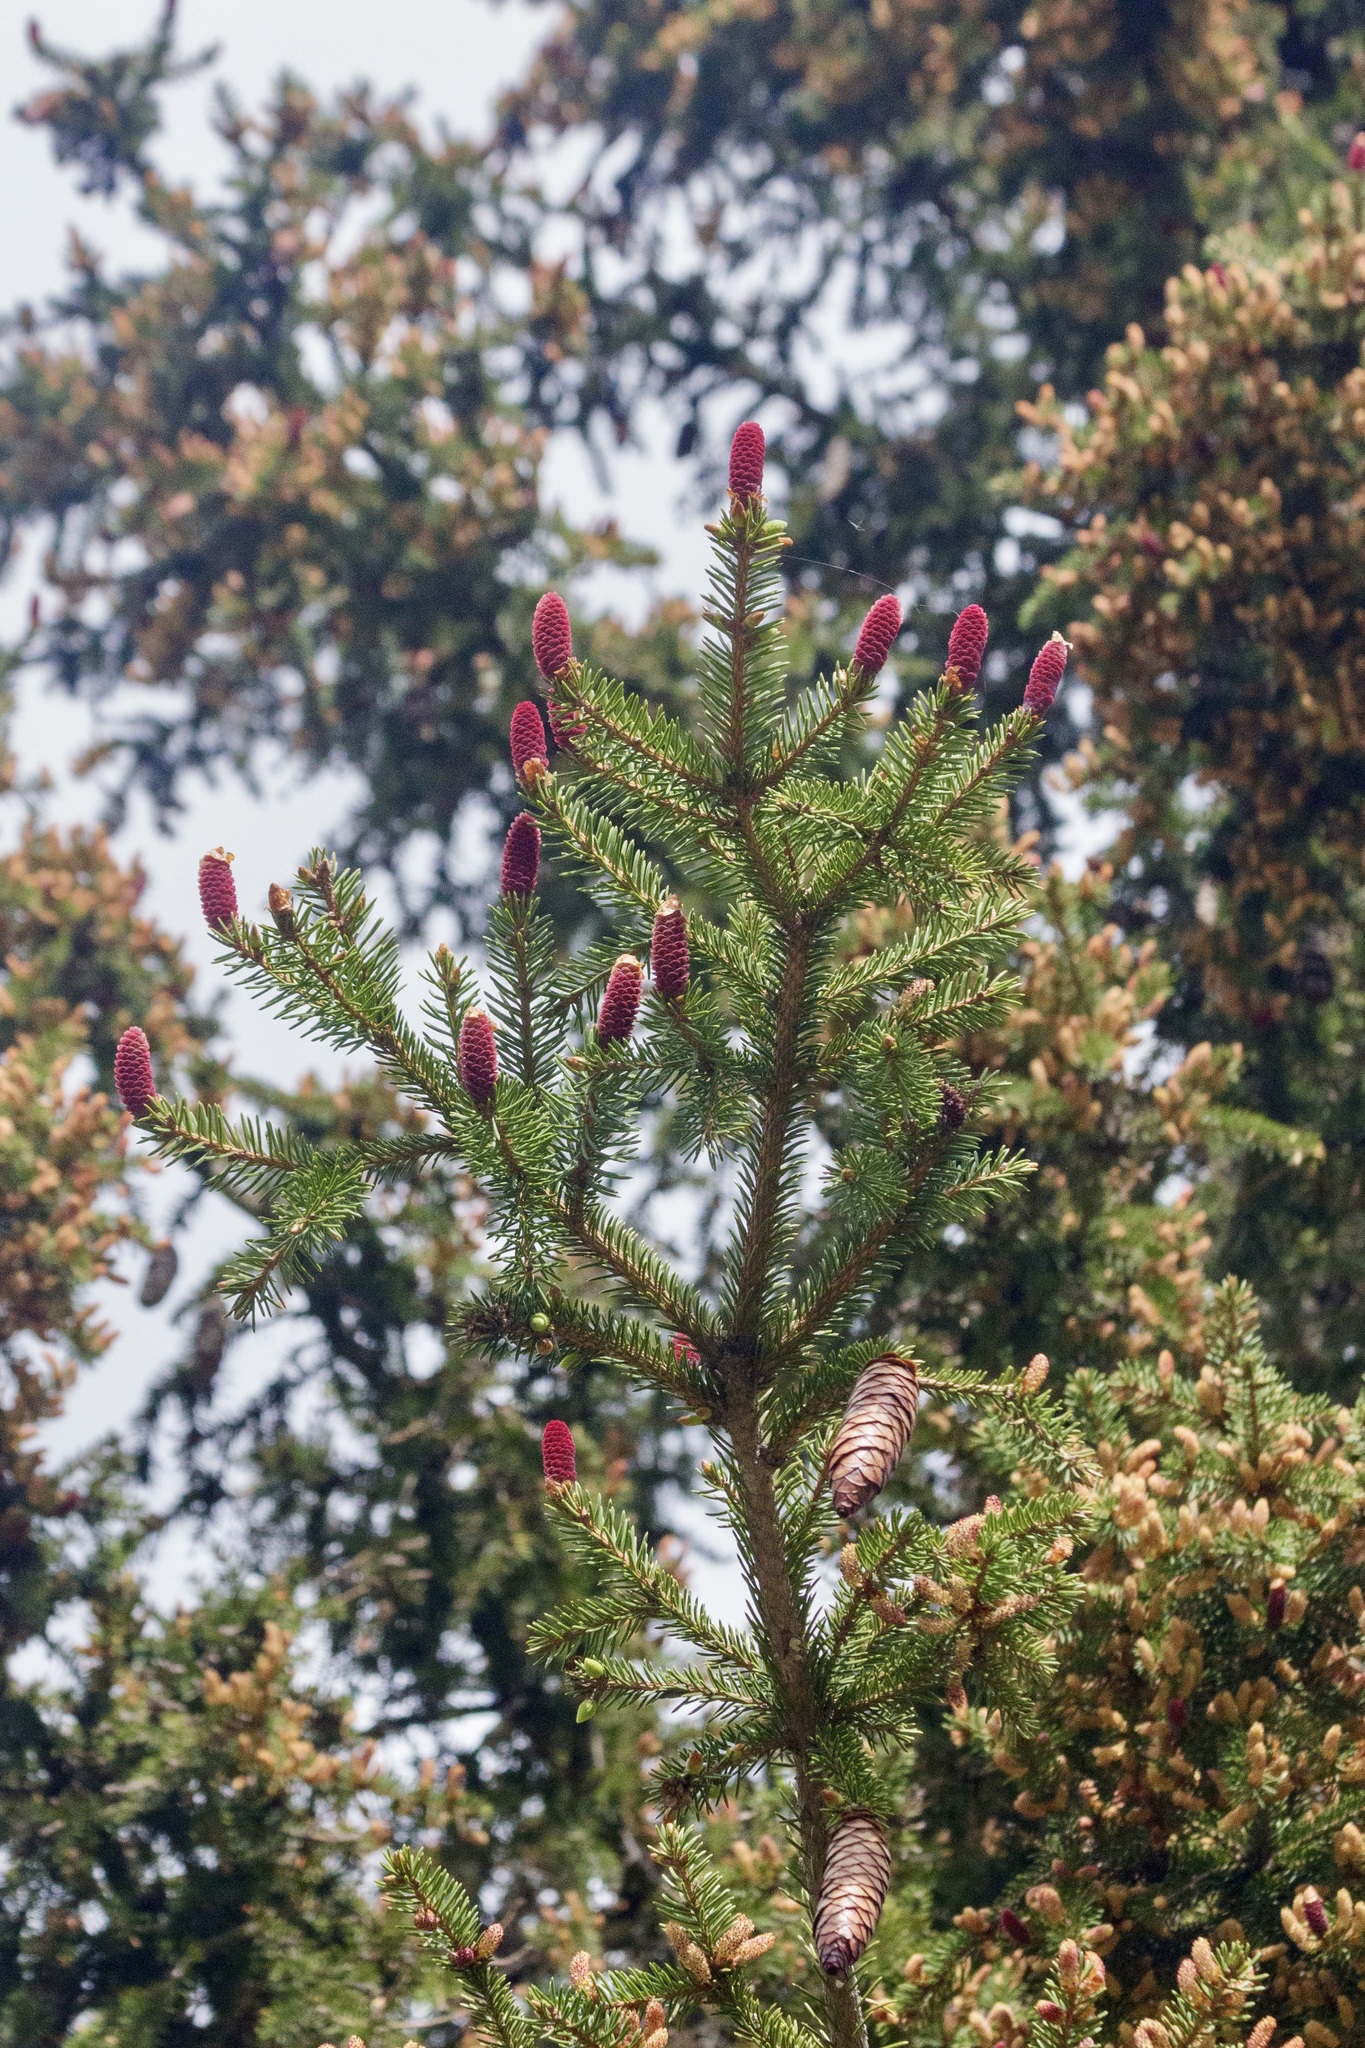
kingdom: Plantae
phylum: Tracheophyta
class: Pinopsida
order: Pinales
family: Pinaceae
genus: Picea
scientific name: Picea schrenkiana
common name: Asian spruce
